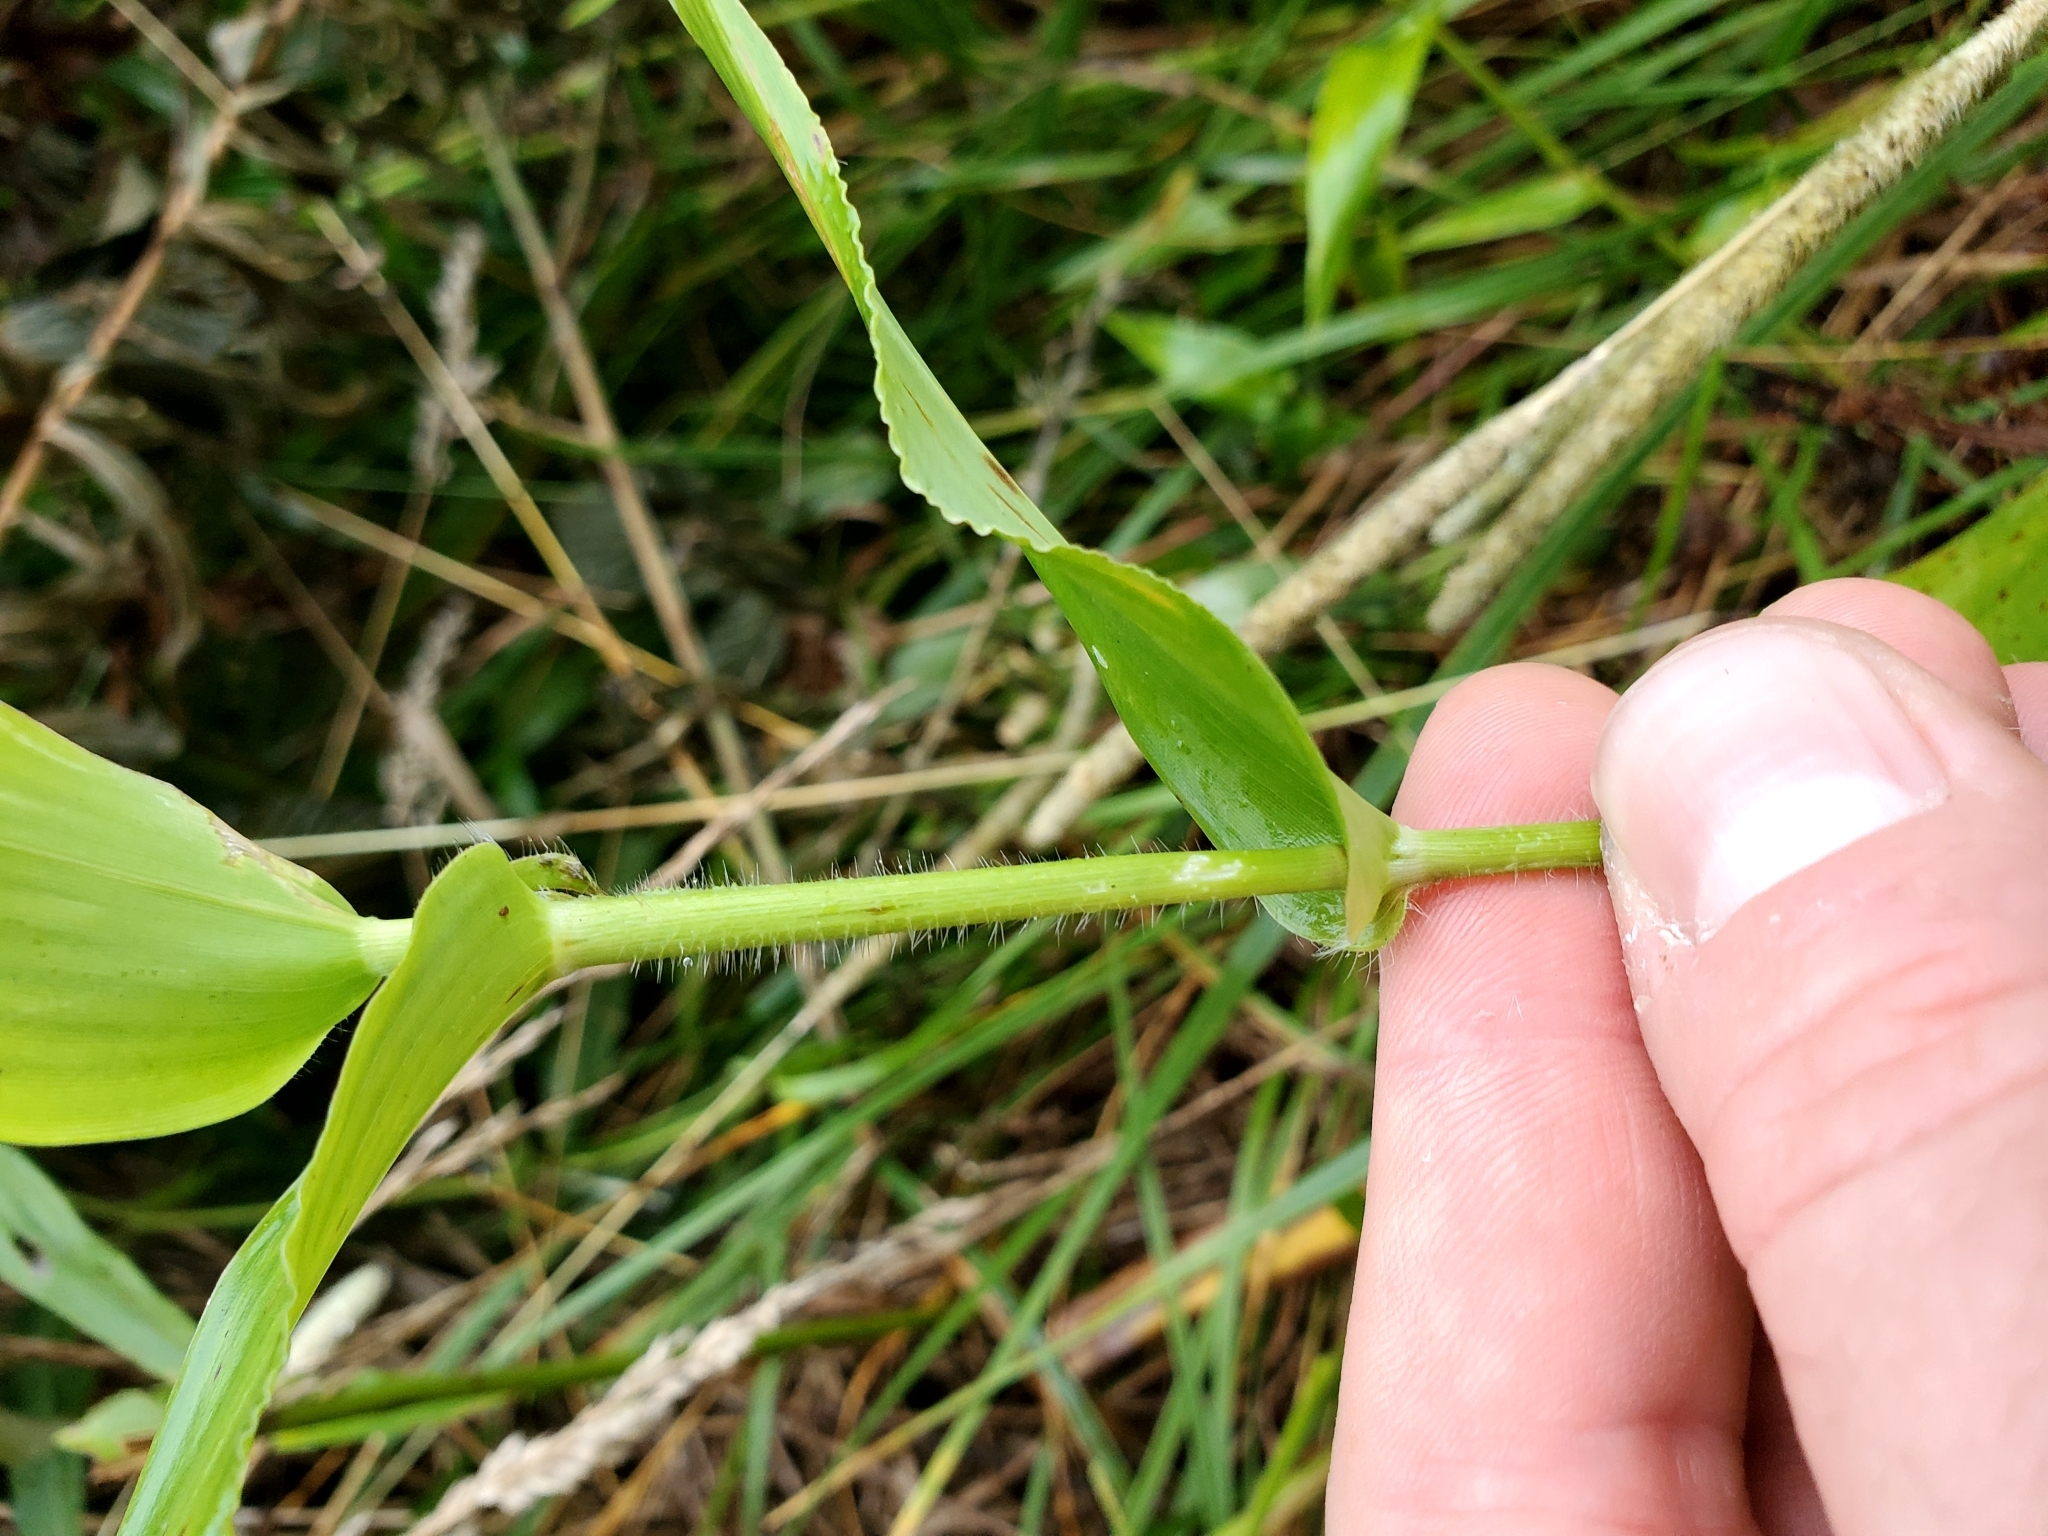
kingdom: Plantae
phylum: Tracheophyta
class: Liliopsida
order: Poales
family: Poaceae
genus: Dichanthelium
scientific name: Dichanthelium clandestinum
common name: Deer-tongue grass
